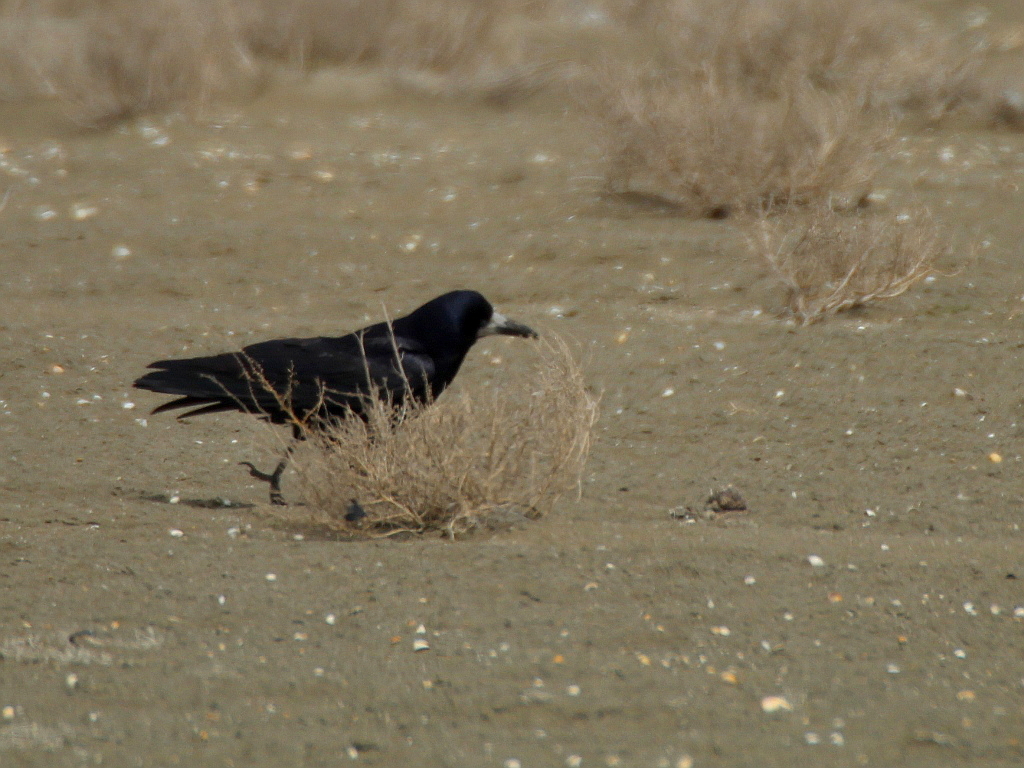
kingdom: Animalia
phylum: Chordata
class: Aves
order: Passeriformes
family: Corvidae
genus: Corvus
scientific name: Corvus frugilegus
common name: Rook
